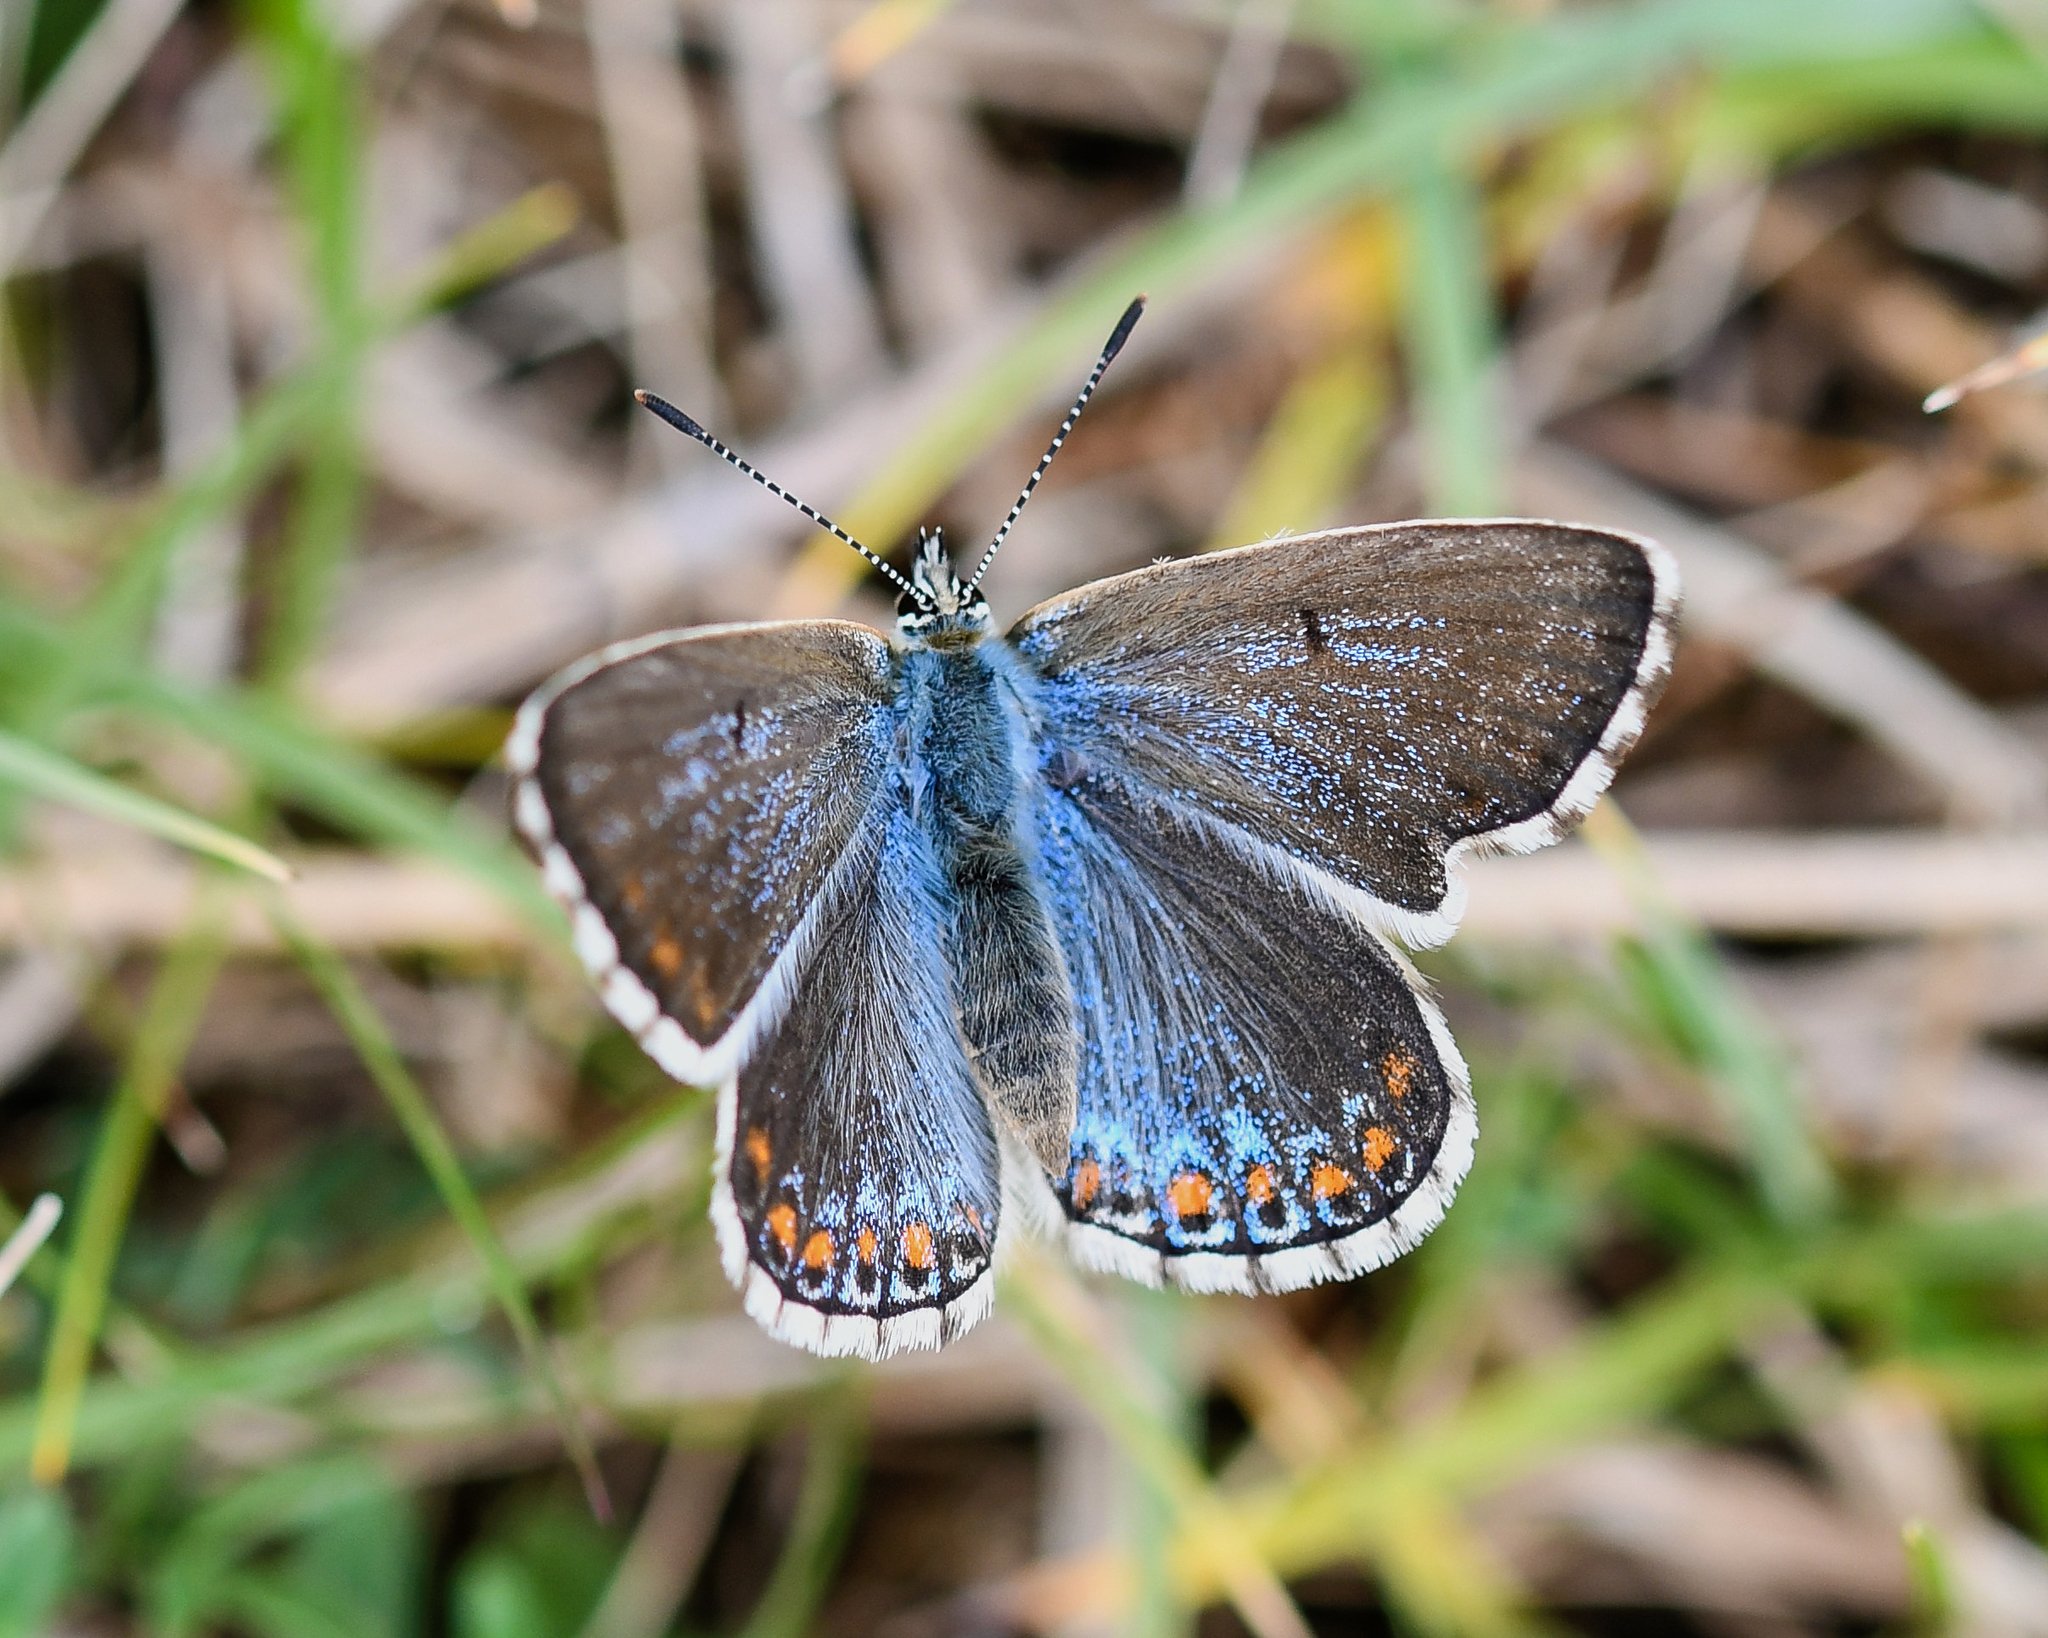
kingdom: Animalia
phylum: Arthropoda
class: Insecta
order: Lepidoptera
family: Lycaenidae
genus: Lysandra
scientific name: Lysandra bellargus
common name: Adonis blue
